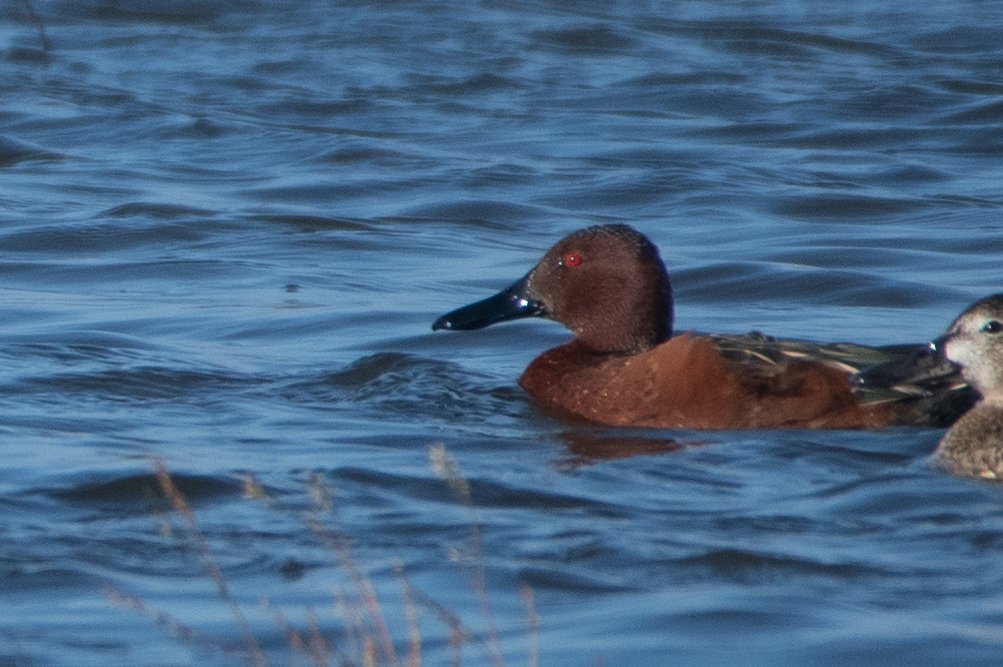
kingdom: Animalia
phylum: Chordata
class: Aves
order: Anseriformes
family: Anatidae
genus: Spatula
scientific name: Spatula cyanoptera
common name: Cinnamon teal
